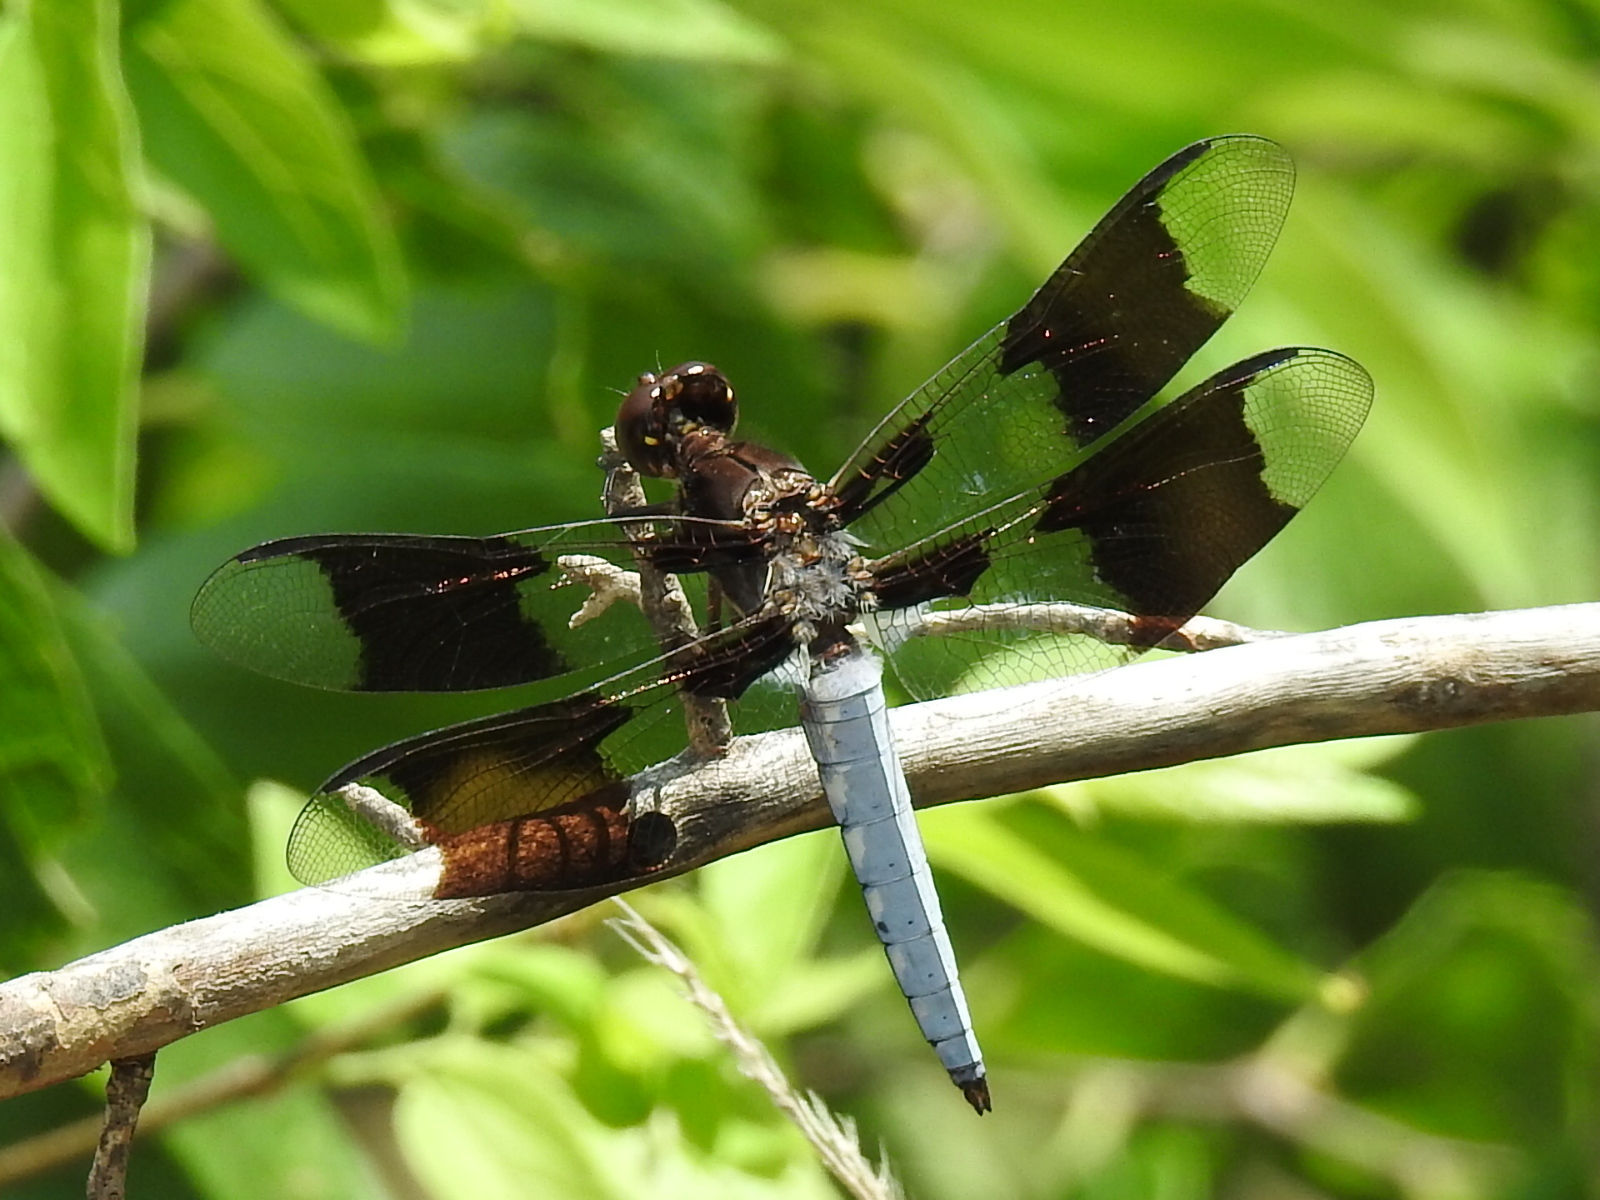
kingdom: Animalia
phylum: Arthropoda
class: Insecta
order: Odonata
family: Libellulidae
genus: Plathemis
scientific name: Plathemis lydia
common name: Common whitetail
